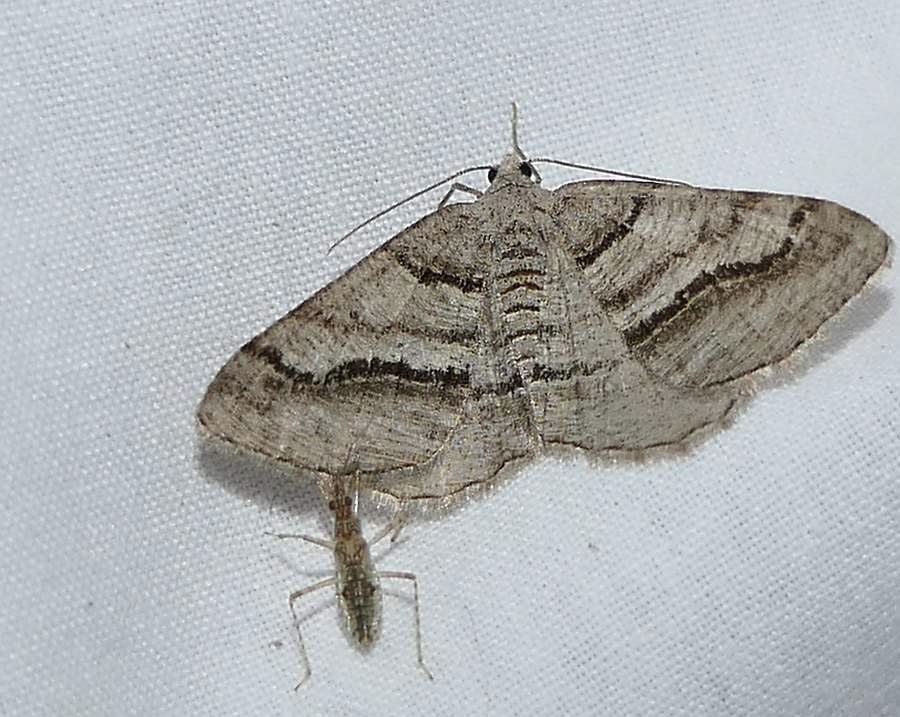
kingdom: Animalia
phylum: Arthropoda
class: Insecta
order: Lepidoptera
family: Geometridae
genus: Digrammia
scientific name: Digrammia continuata
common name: Curve-lined angle
